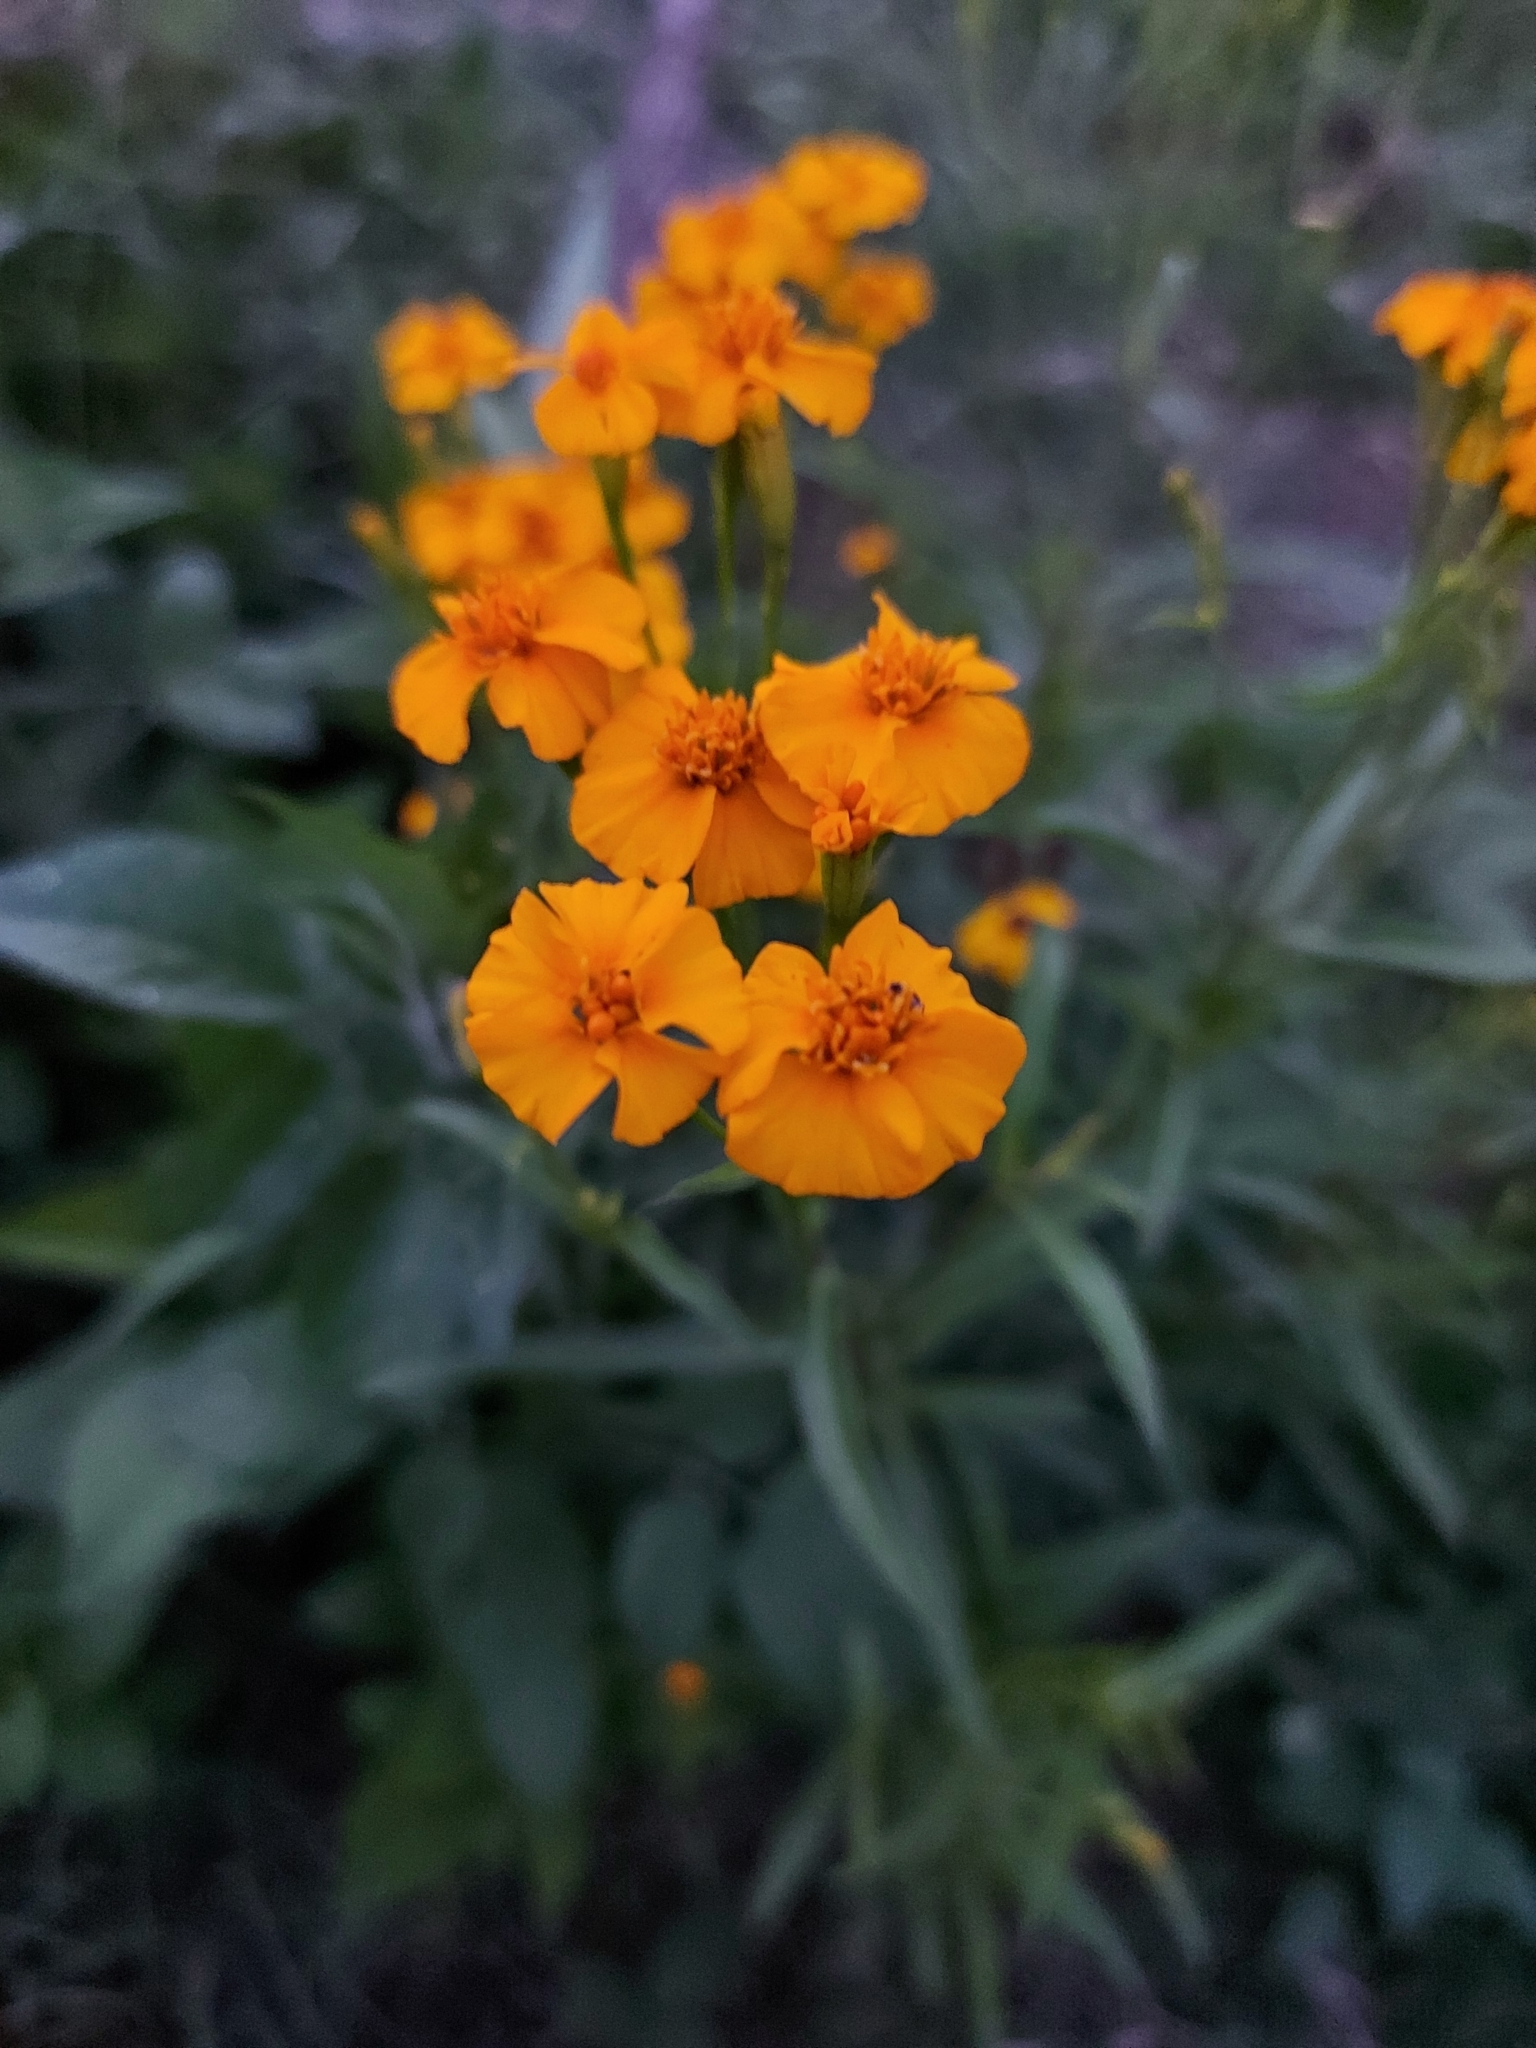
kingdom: Plantae
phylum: Tracheophyta
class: Magnoliopsida
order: Asterales
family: Asteraceae
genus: Tagetes
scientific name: Tagetes lucida
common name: Sweetscented marigold
